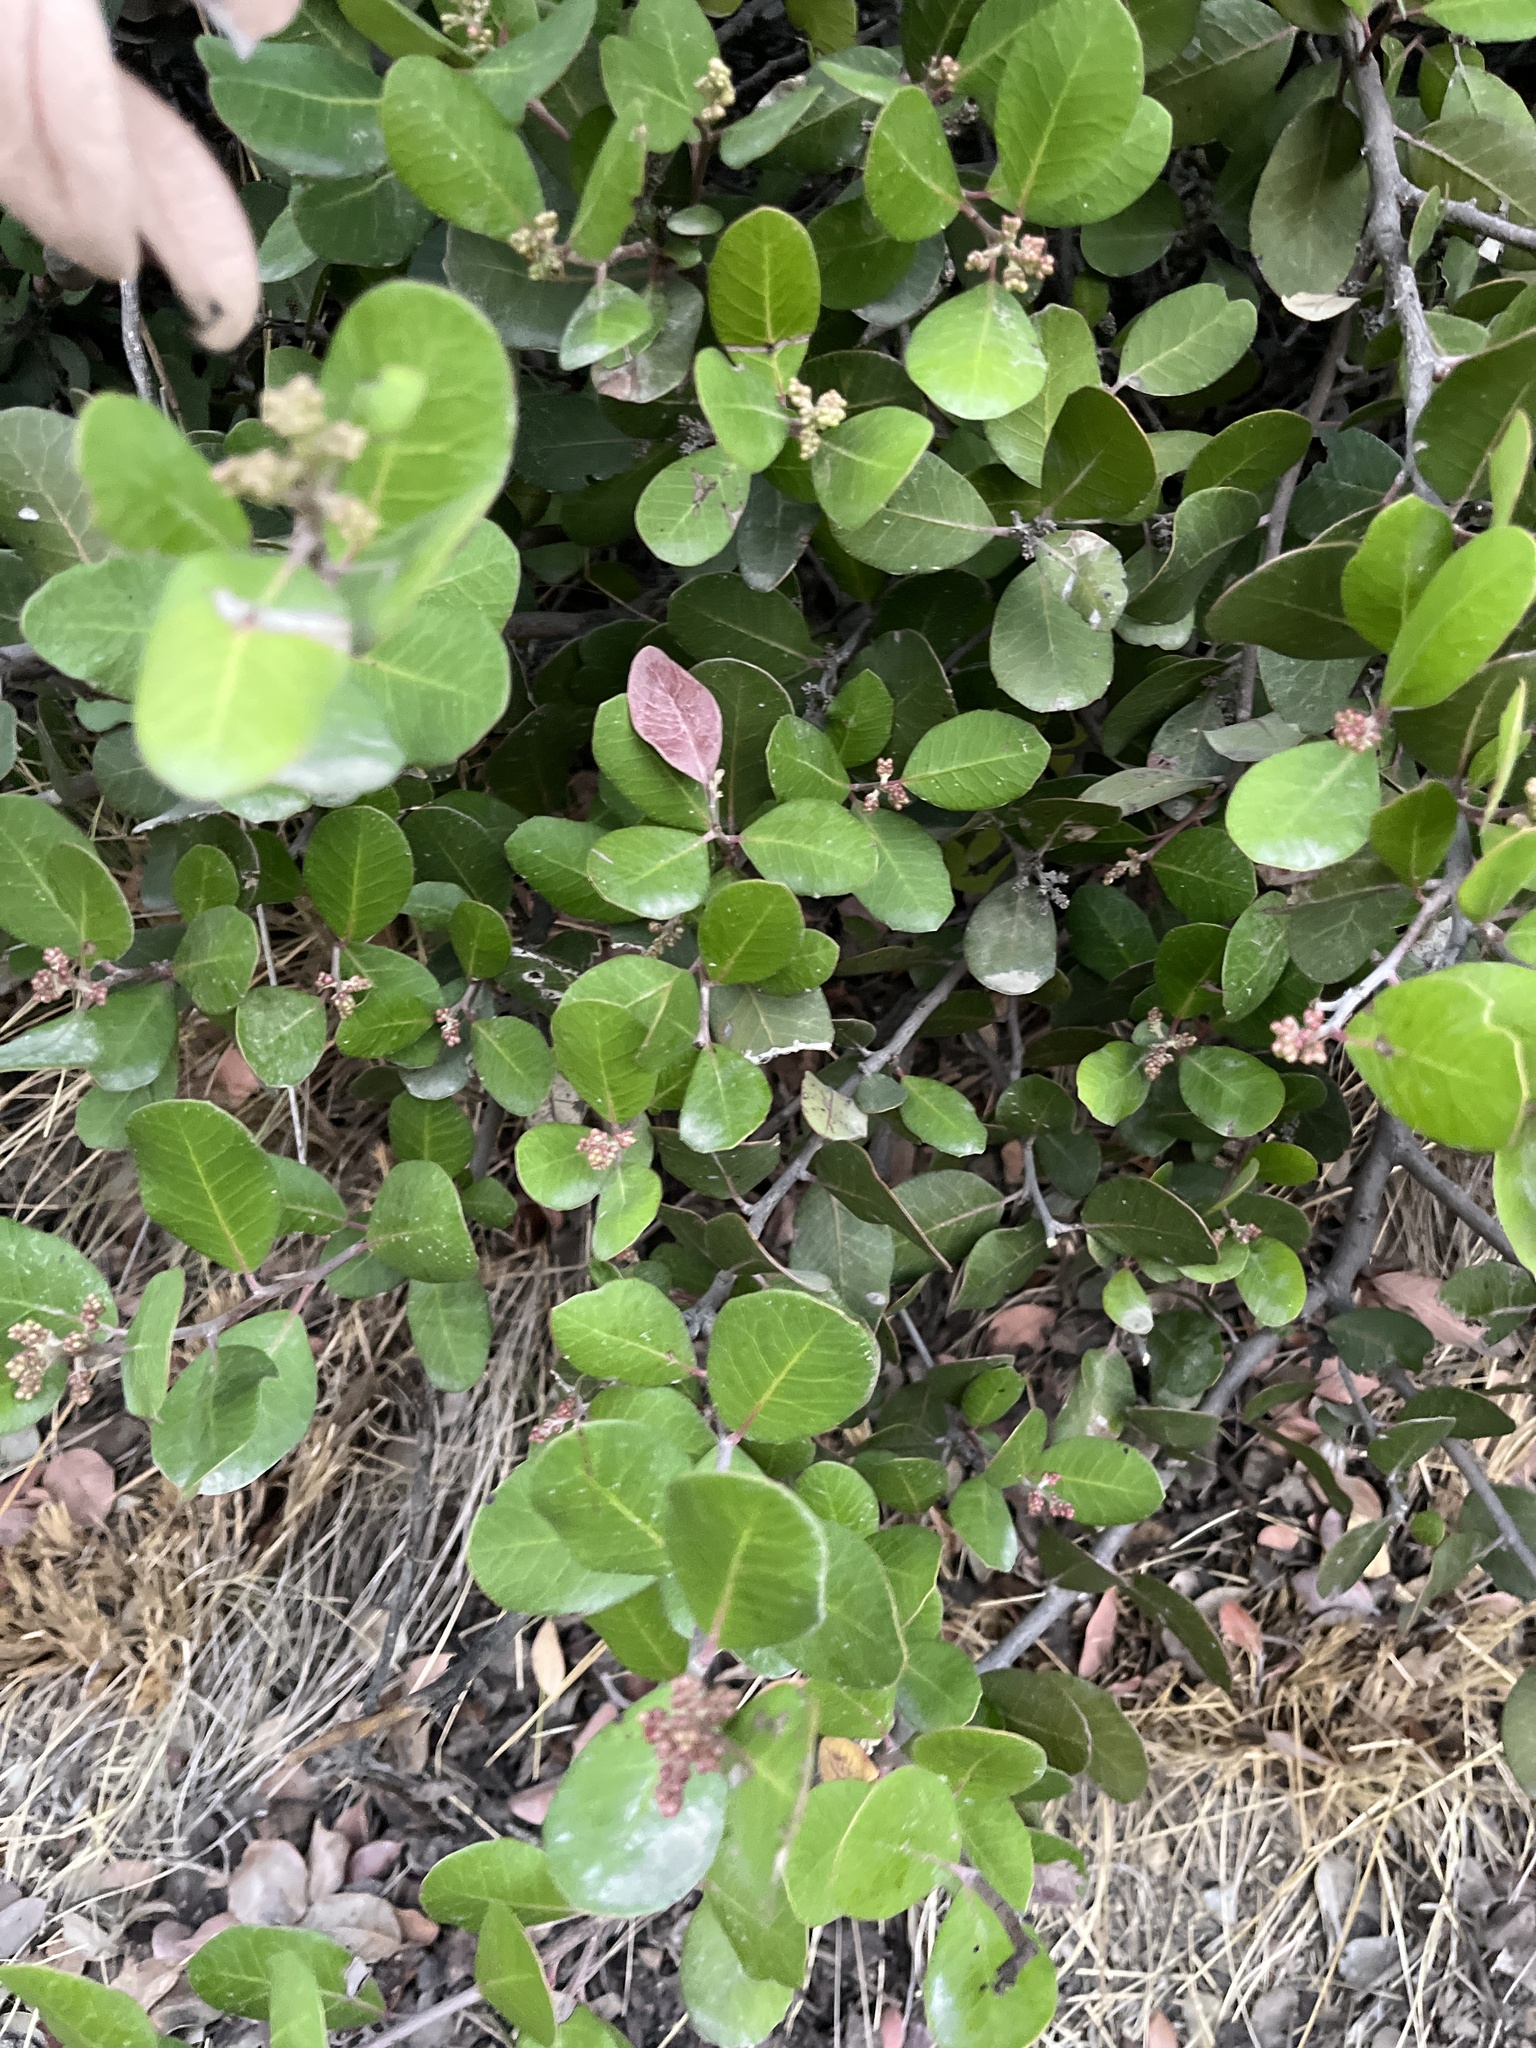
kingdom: Plantae
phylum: Tracheophyta
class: Magnoliopsida
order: Sapindales
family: Anacardiaceae
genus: Rhus
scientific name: Rhus integrifolia
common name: Lemonade sumac
